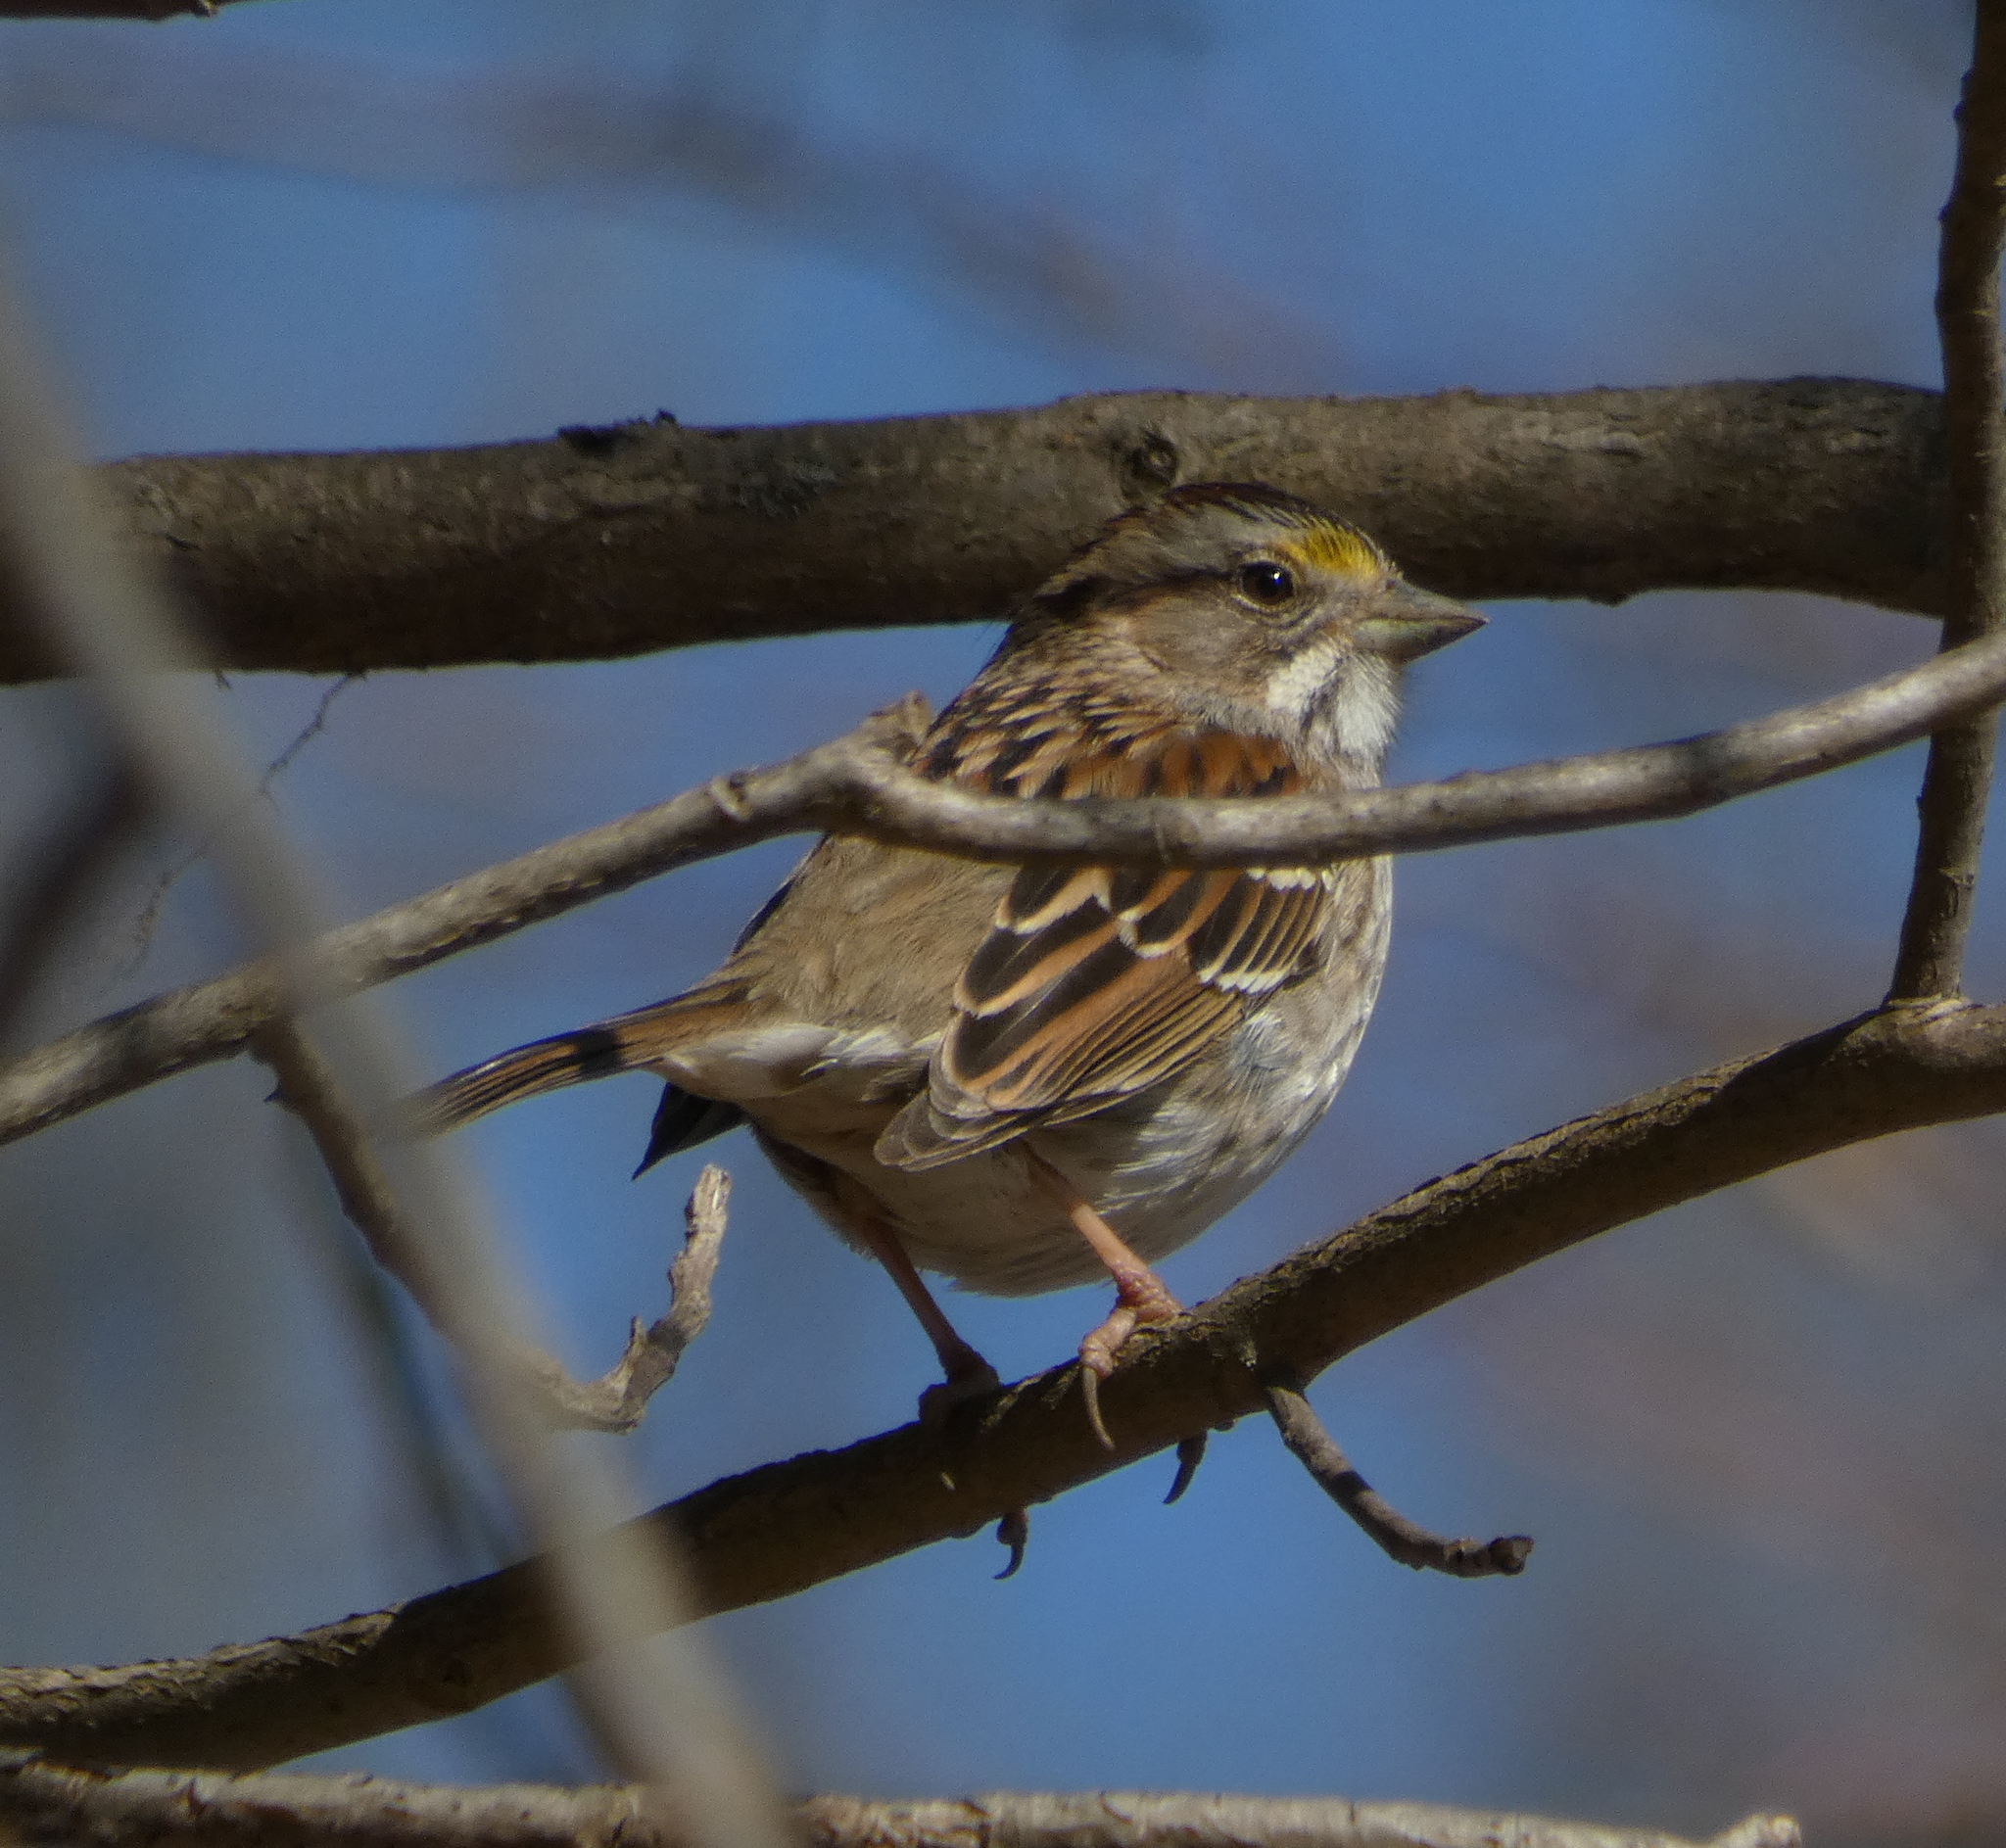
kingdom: Animalia
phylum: Chordata
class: Aves
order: Passeriformes
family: Passerellidae
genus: Zonotrichia
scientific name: Zonotrichia albicollis
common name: White-throated sparrow
